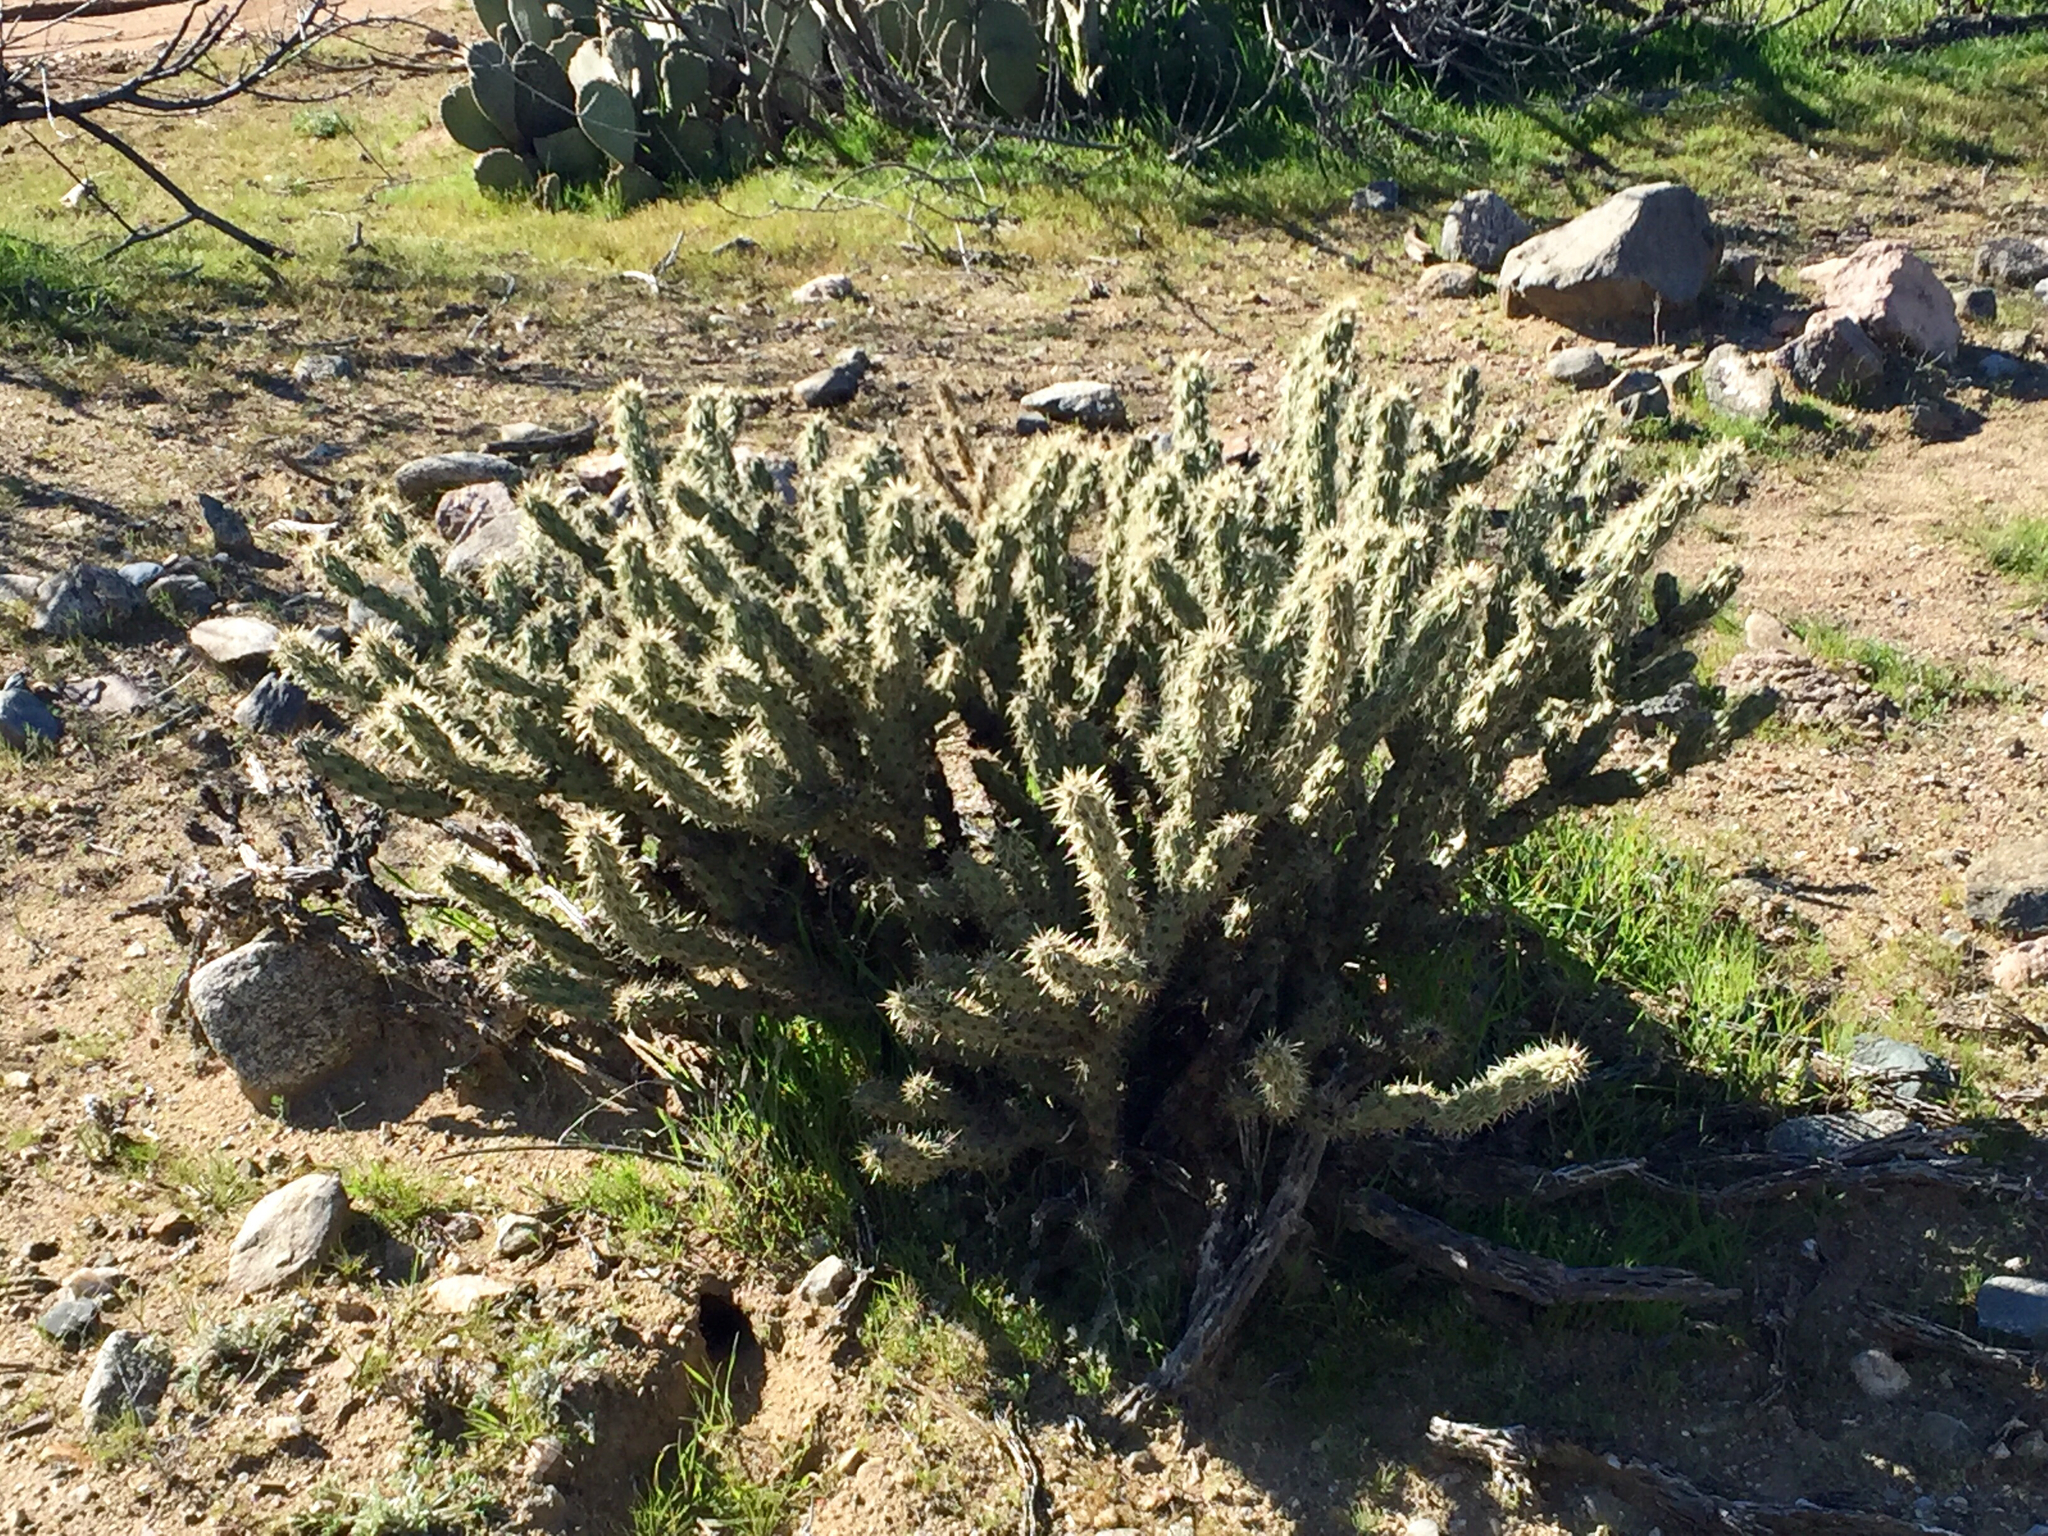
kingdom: Plantae
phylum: Tracheophyta
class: Magnoliopsida
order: Caryophyllales
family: Cactaceae
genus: Cylindropuntia
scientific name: Cylindropuntia acanthocarpa
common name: Buckhorn cholla
